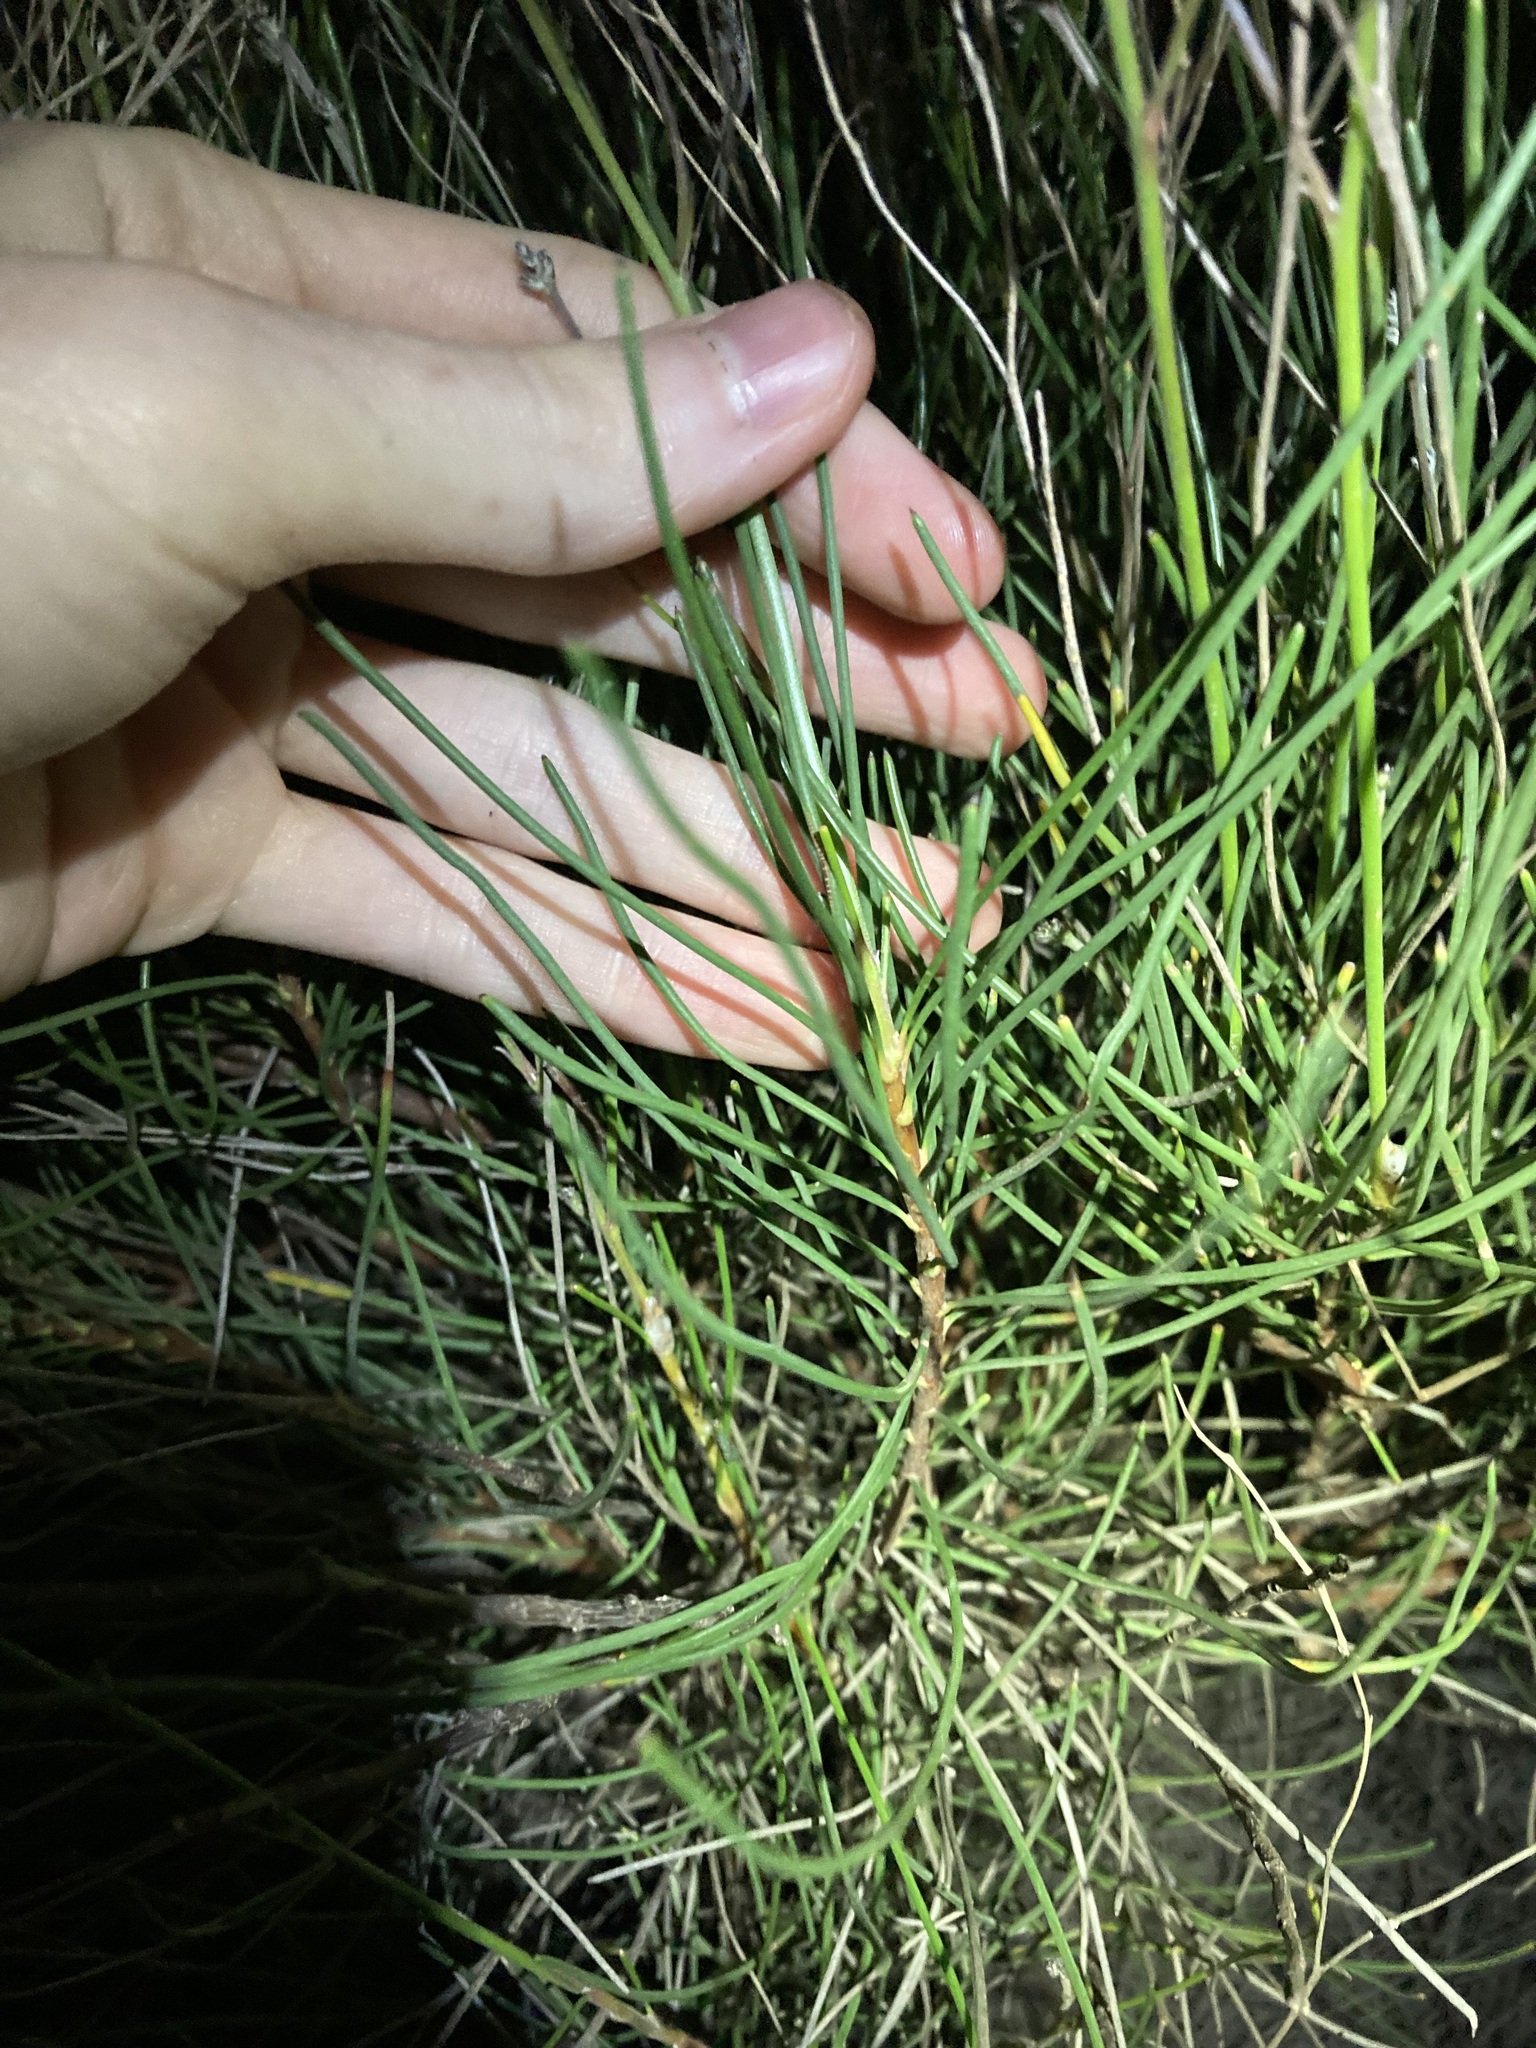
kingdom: Plantae
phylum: Tracheophyta
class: Magnoliopsida
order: Proteales
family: Proteaceae
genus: Conospermum
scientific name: Conospermum stoechadis
